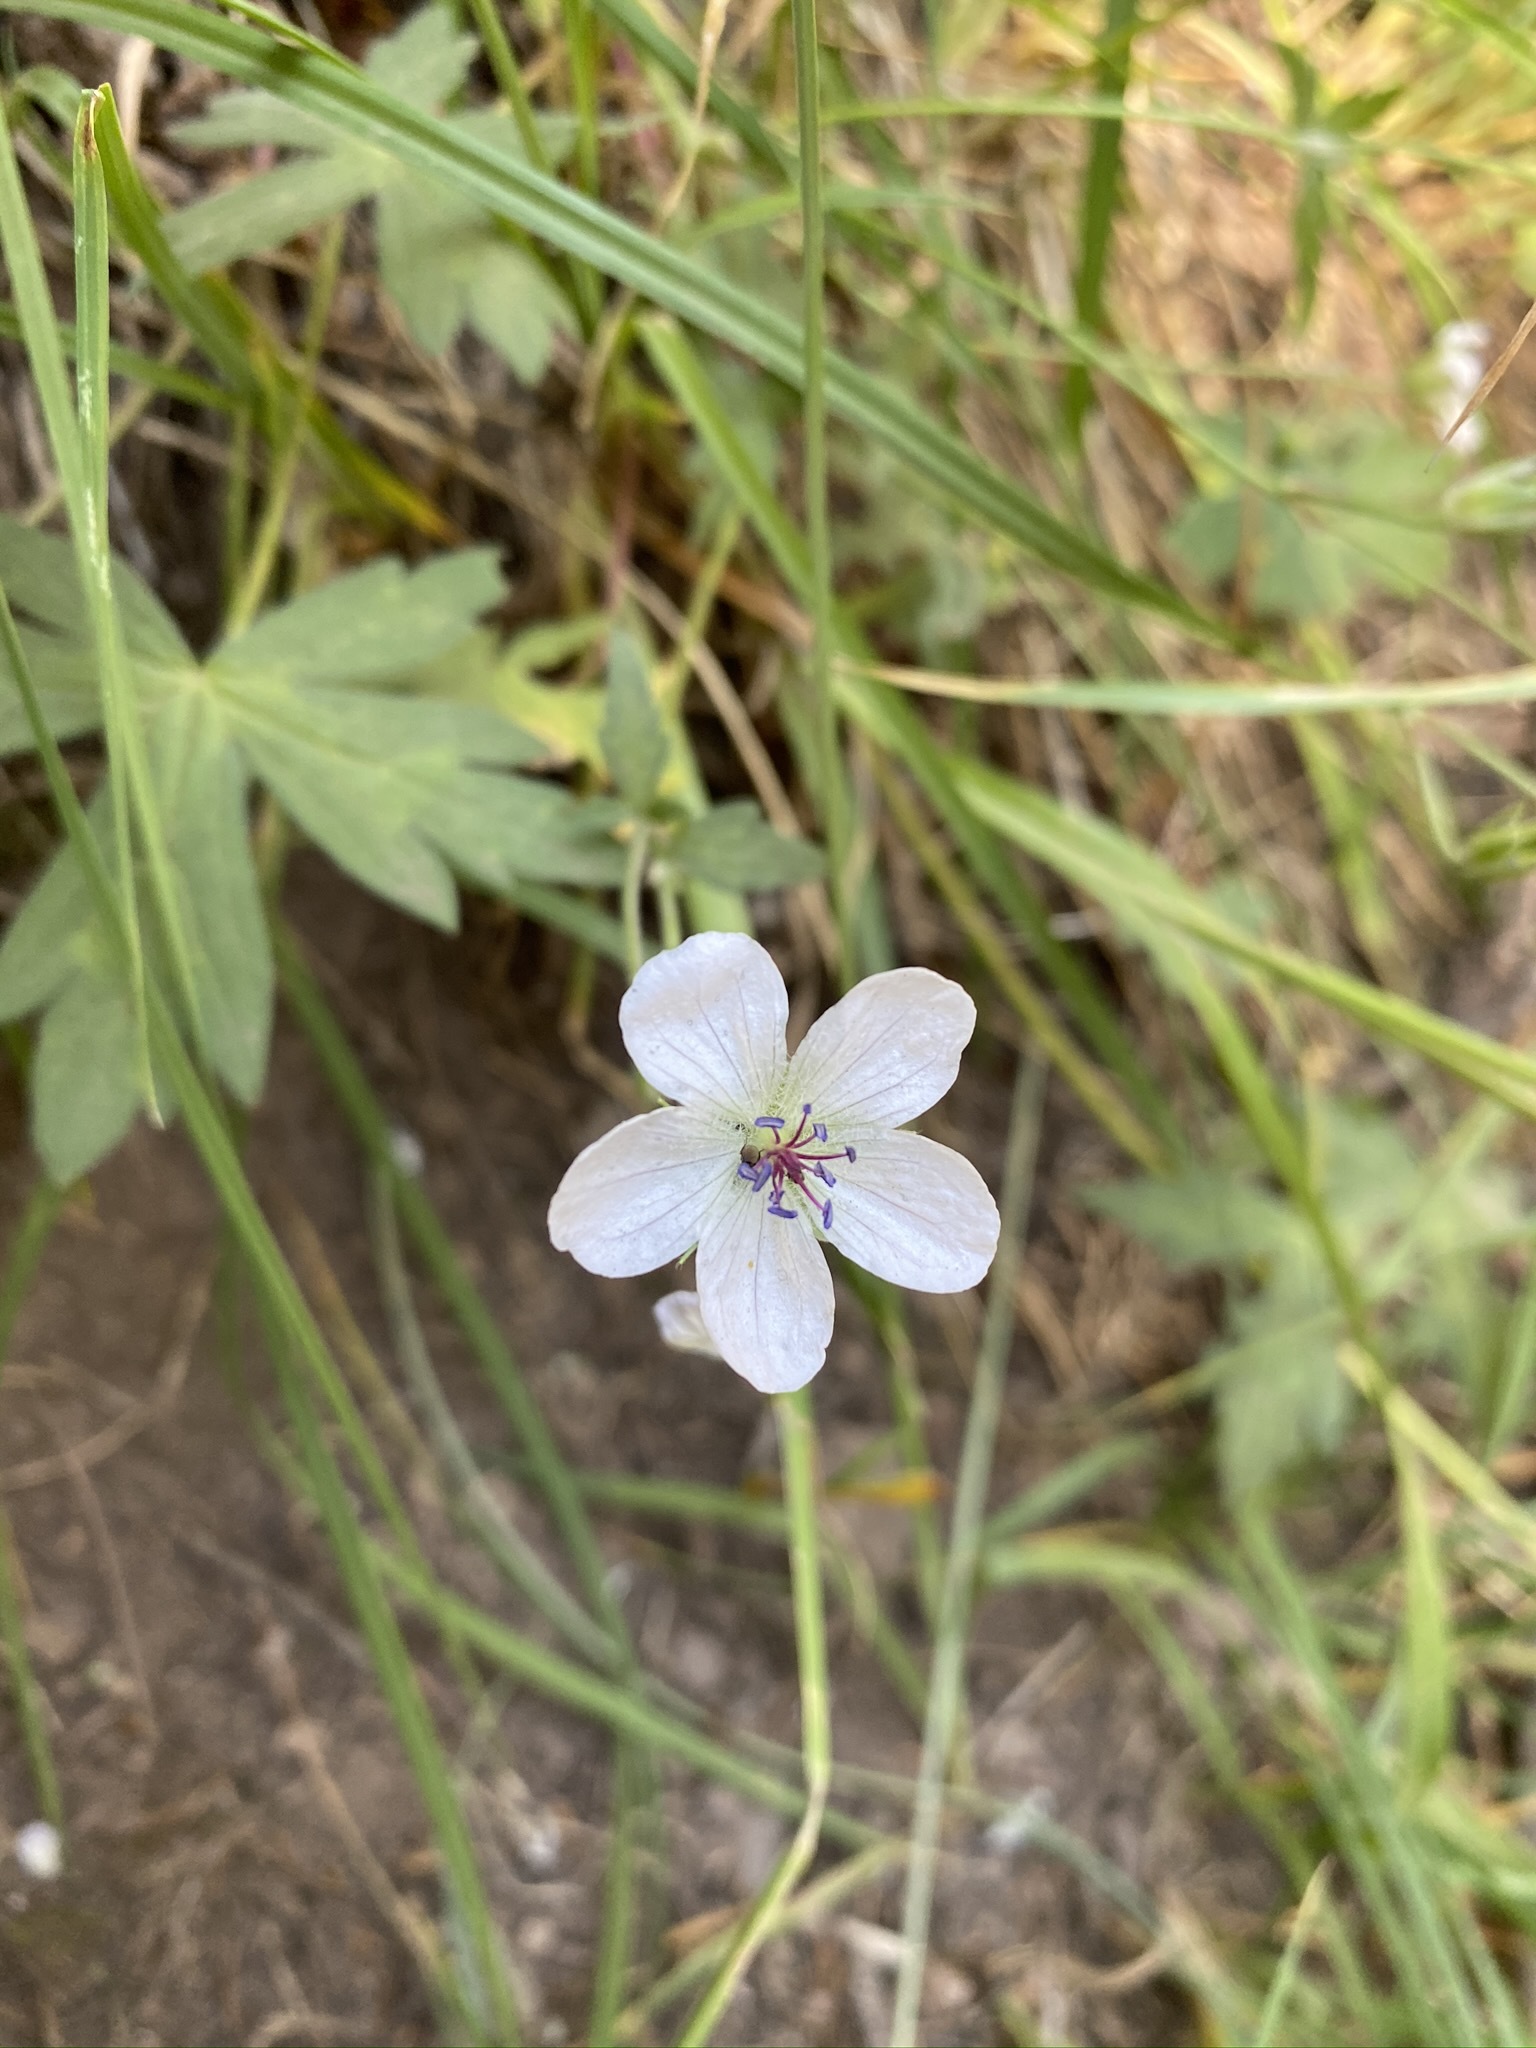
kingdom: Plantae
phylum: Tracheophyta
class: Magnoliopsida
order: Geraniales
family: Geraniaceae
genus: Geranium
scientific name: Geranium richardsonii
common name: Richardson's crane's-bill
